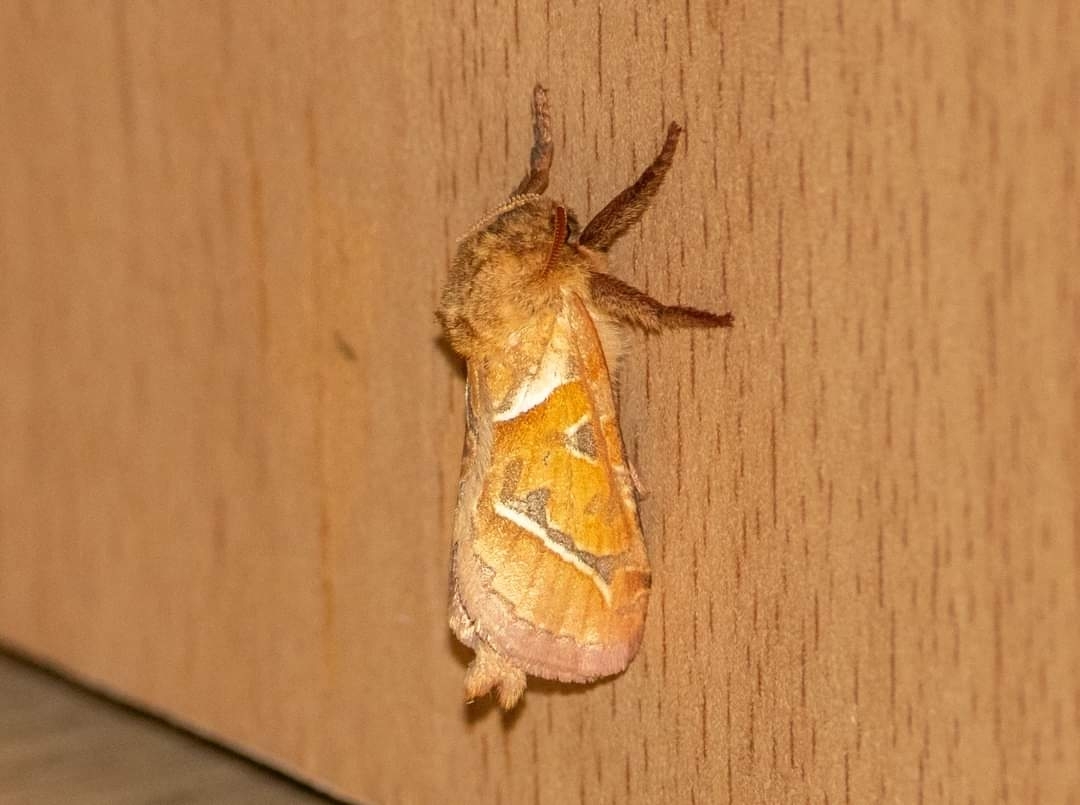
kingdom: Animalia
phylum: Arthropoda
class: Insecta
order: Lepidoptera
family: Hepialidae
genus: Triodia
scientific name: Triodia sylvina
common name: Orange swift
